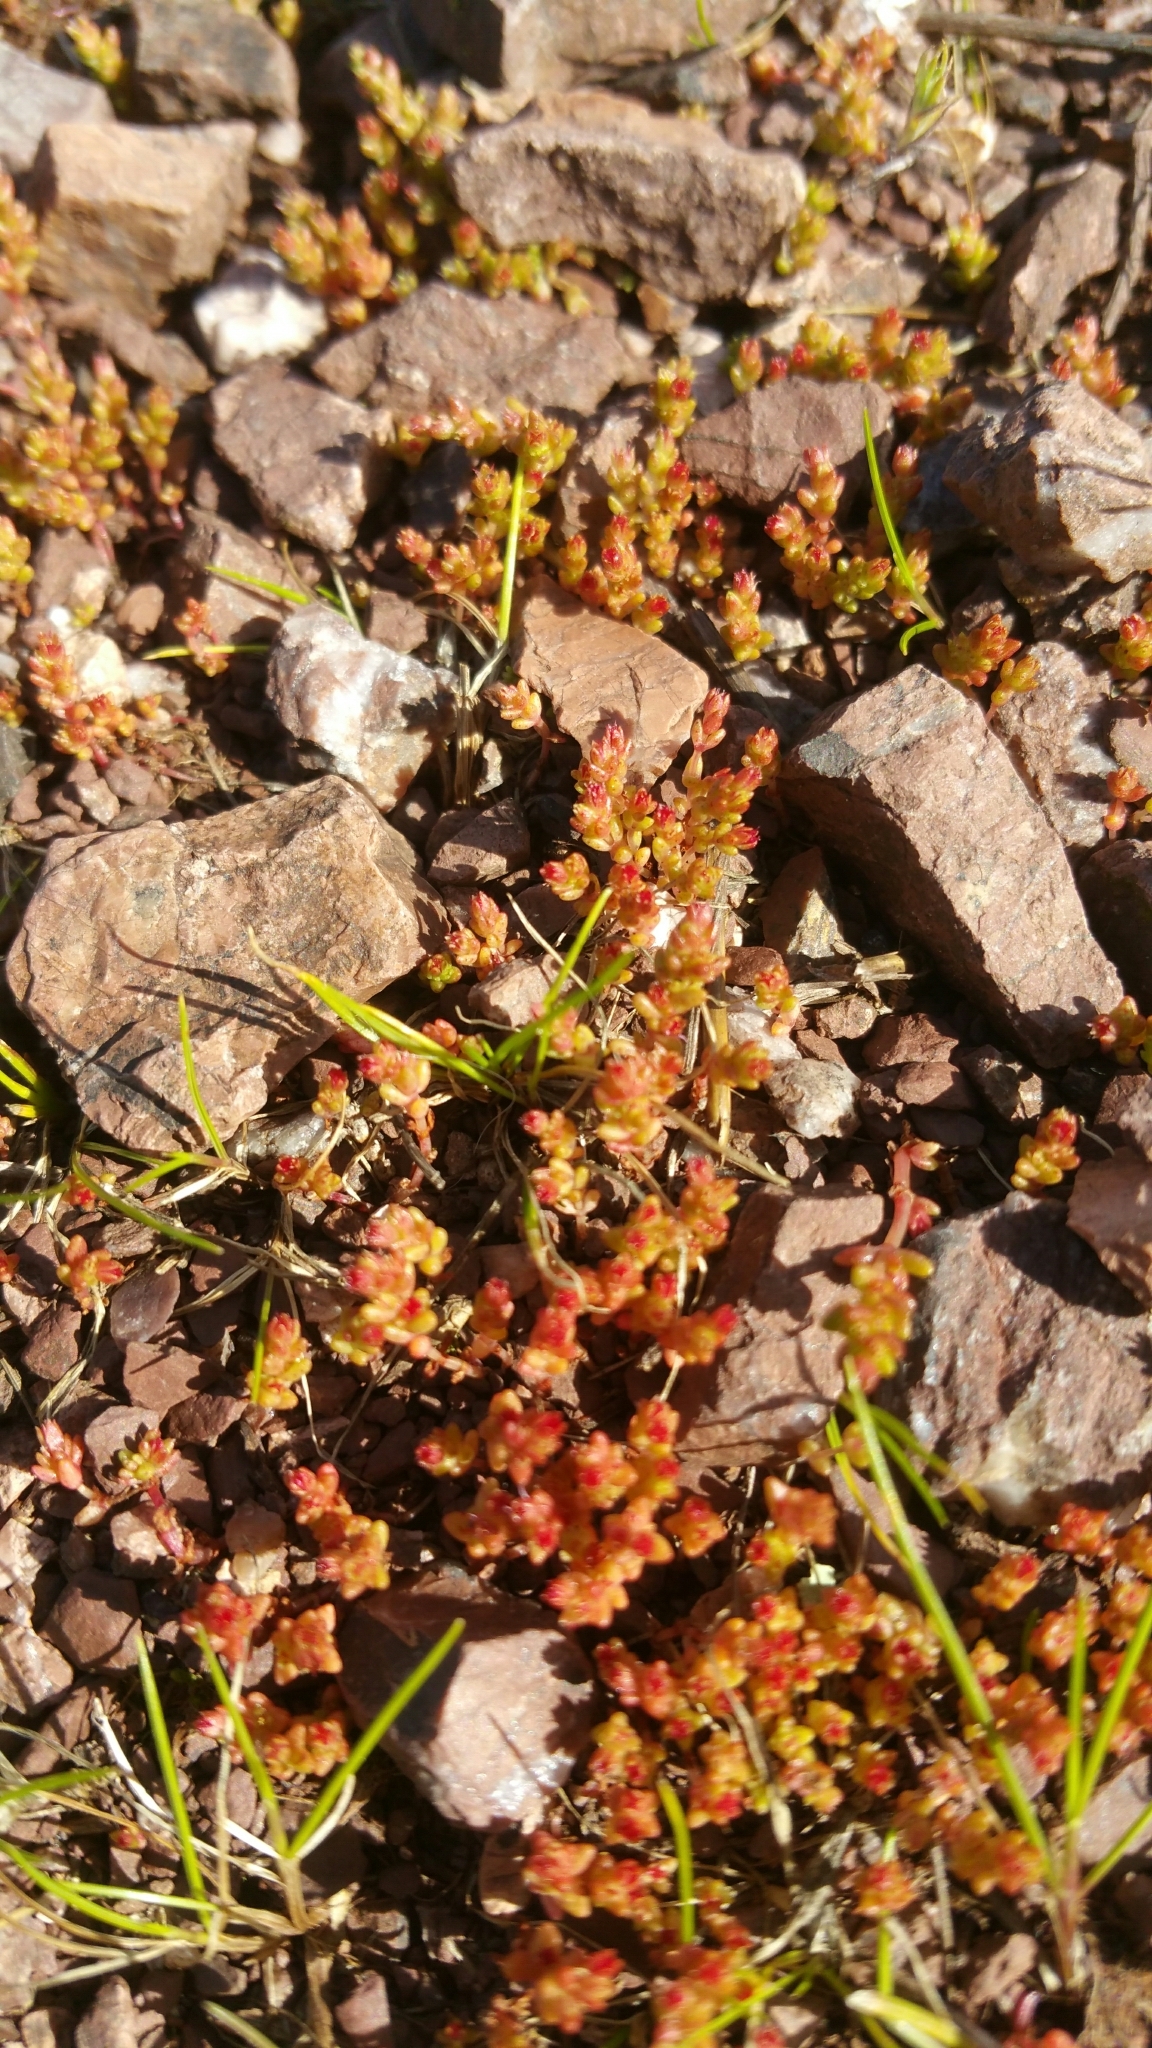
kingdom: Plantae
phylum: Tracheophyta
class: Magnoliopsida
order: Saxifragales
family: Crassulaceae
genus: Crassula
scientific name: Crassula connata
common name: Erect pygmyweed
